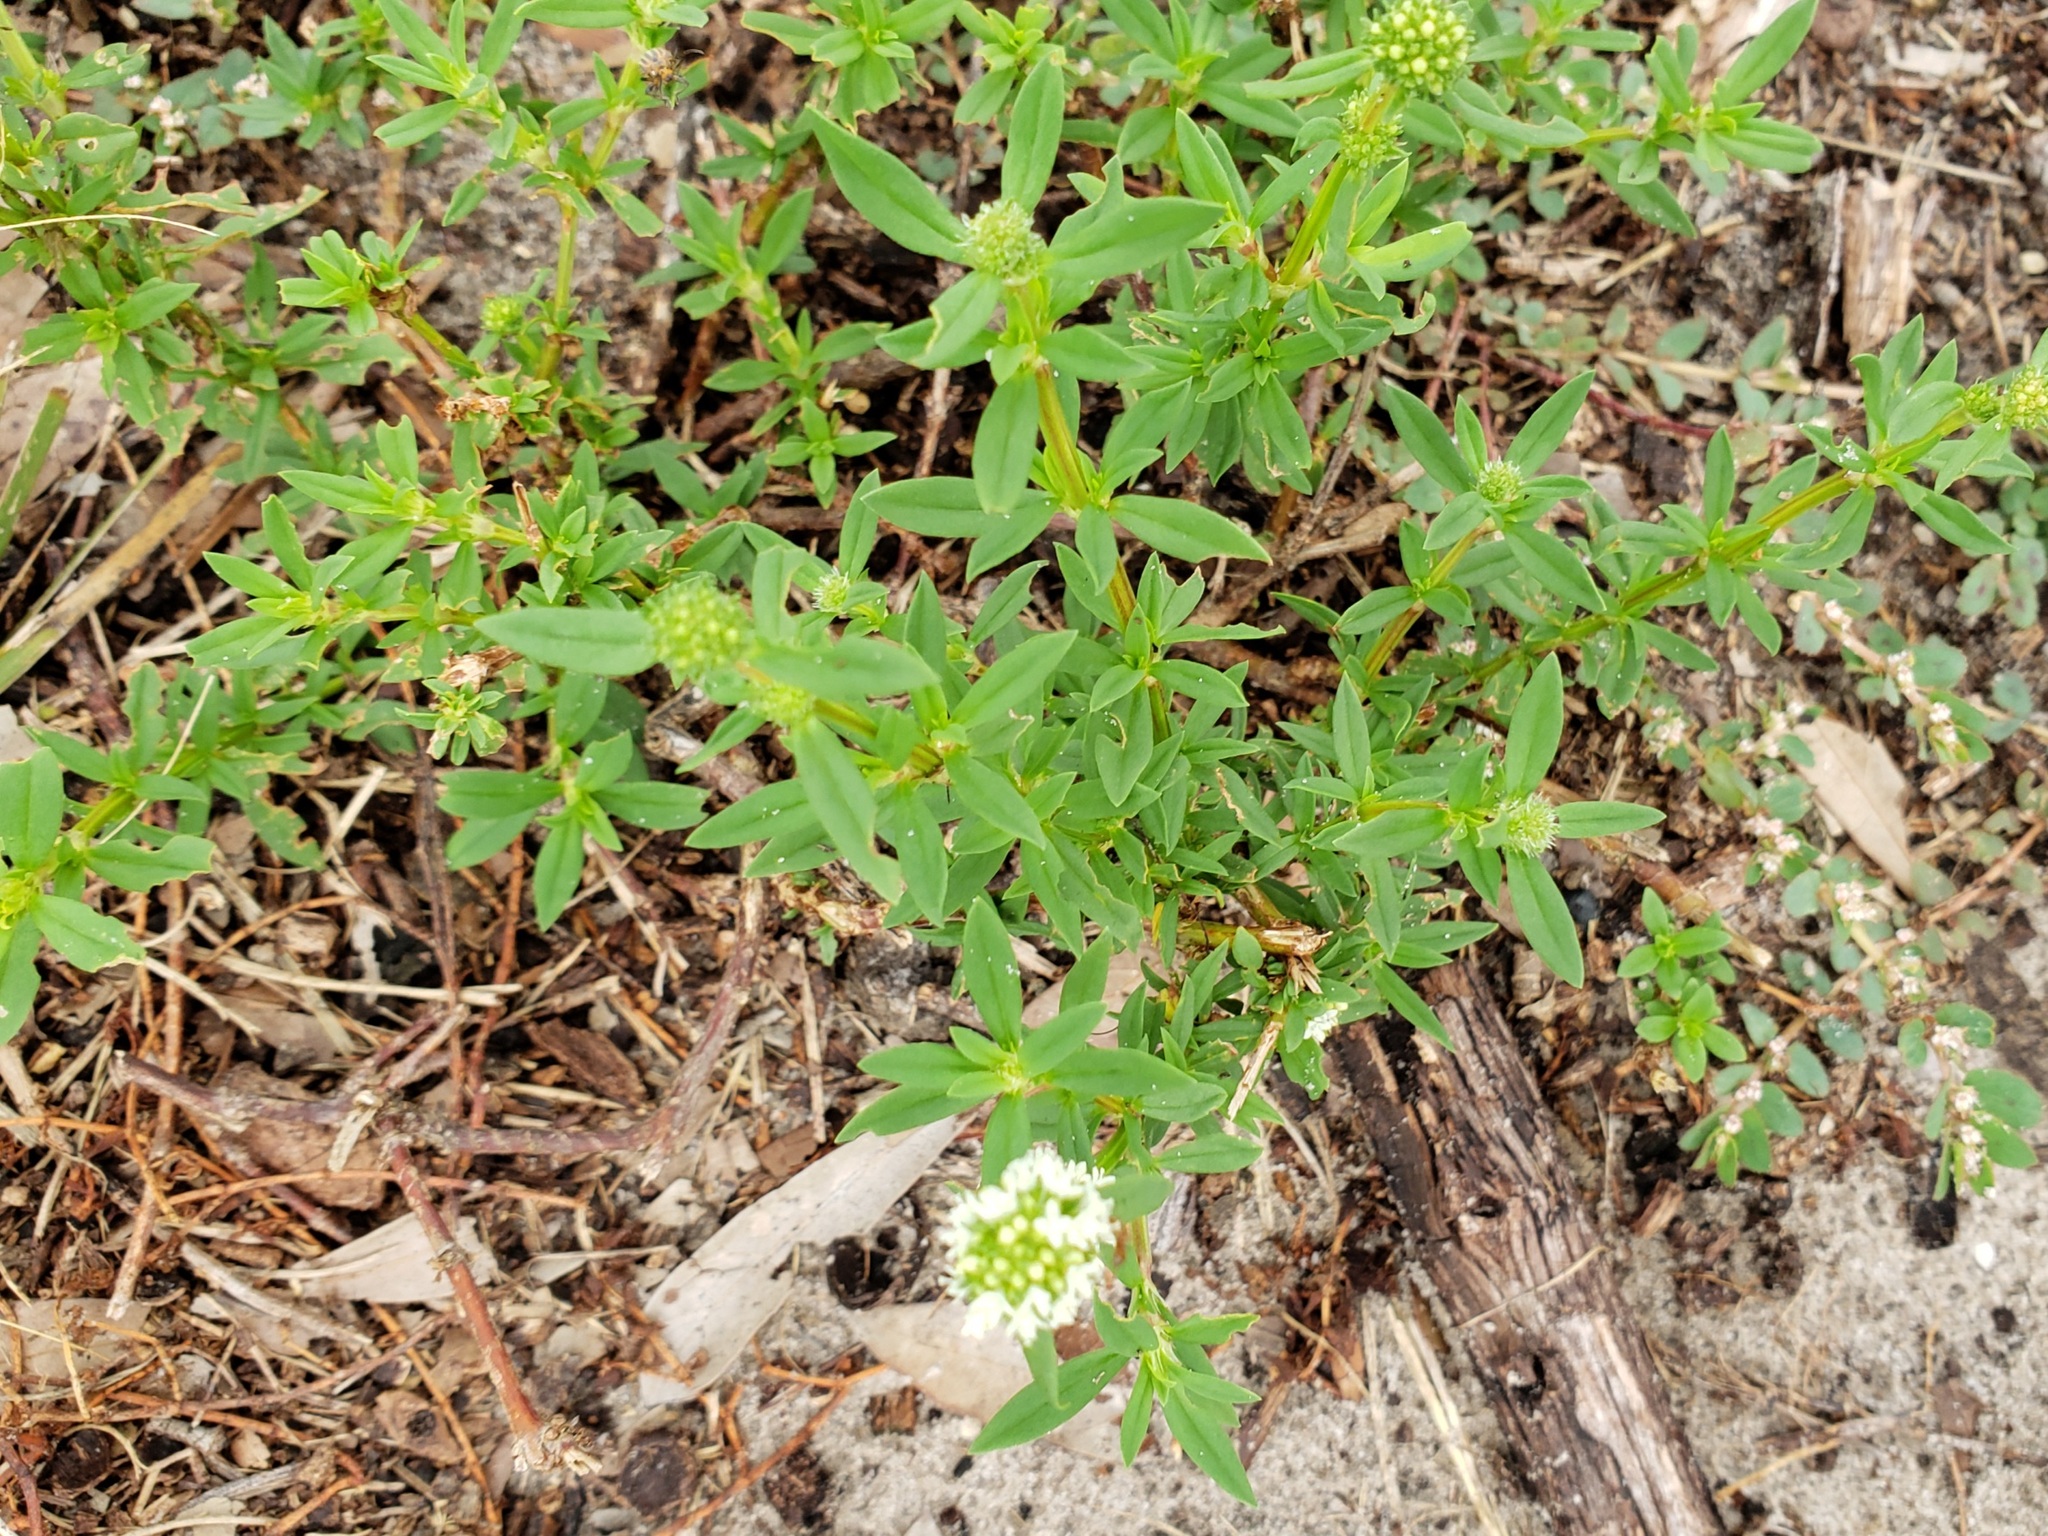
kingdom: Plantae
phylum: Tracheophyta
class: Magnoliopsida
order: Gentianales
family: Rubiaceae
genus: Spermacoce
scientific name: Spermacoce verticillata
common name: Shrubby false buttonweed
